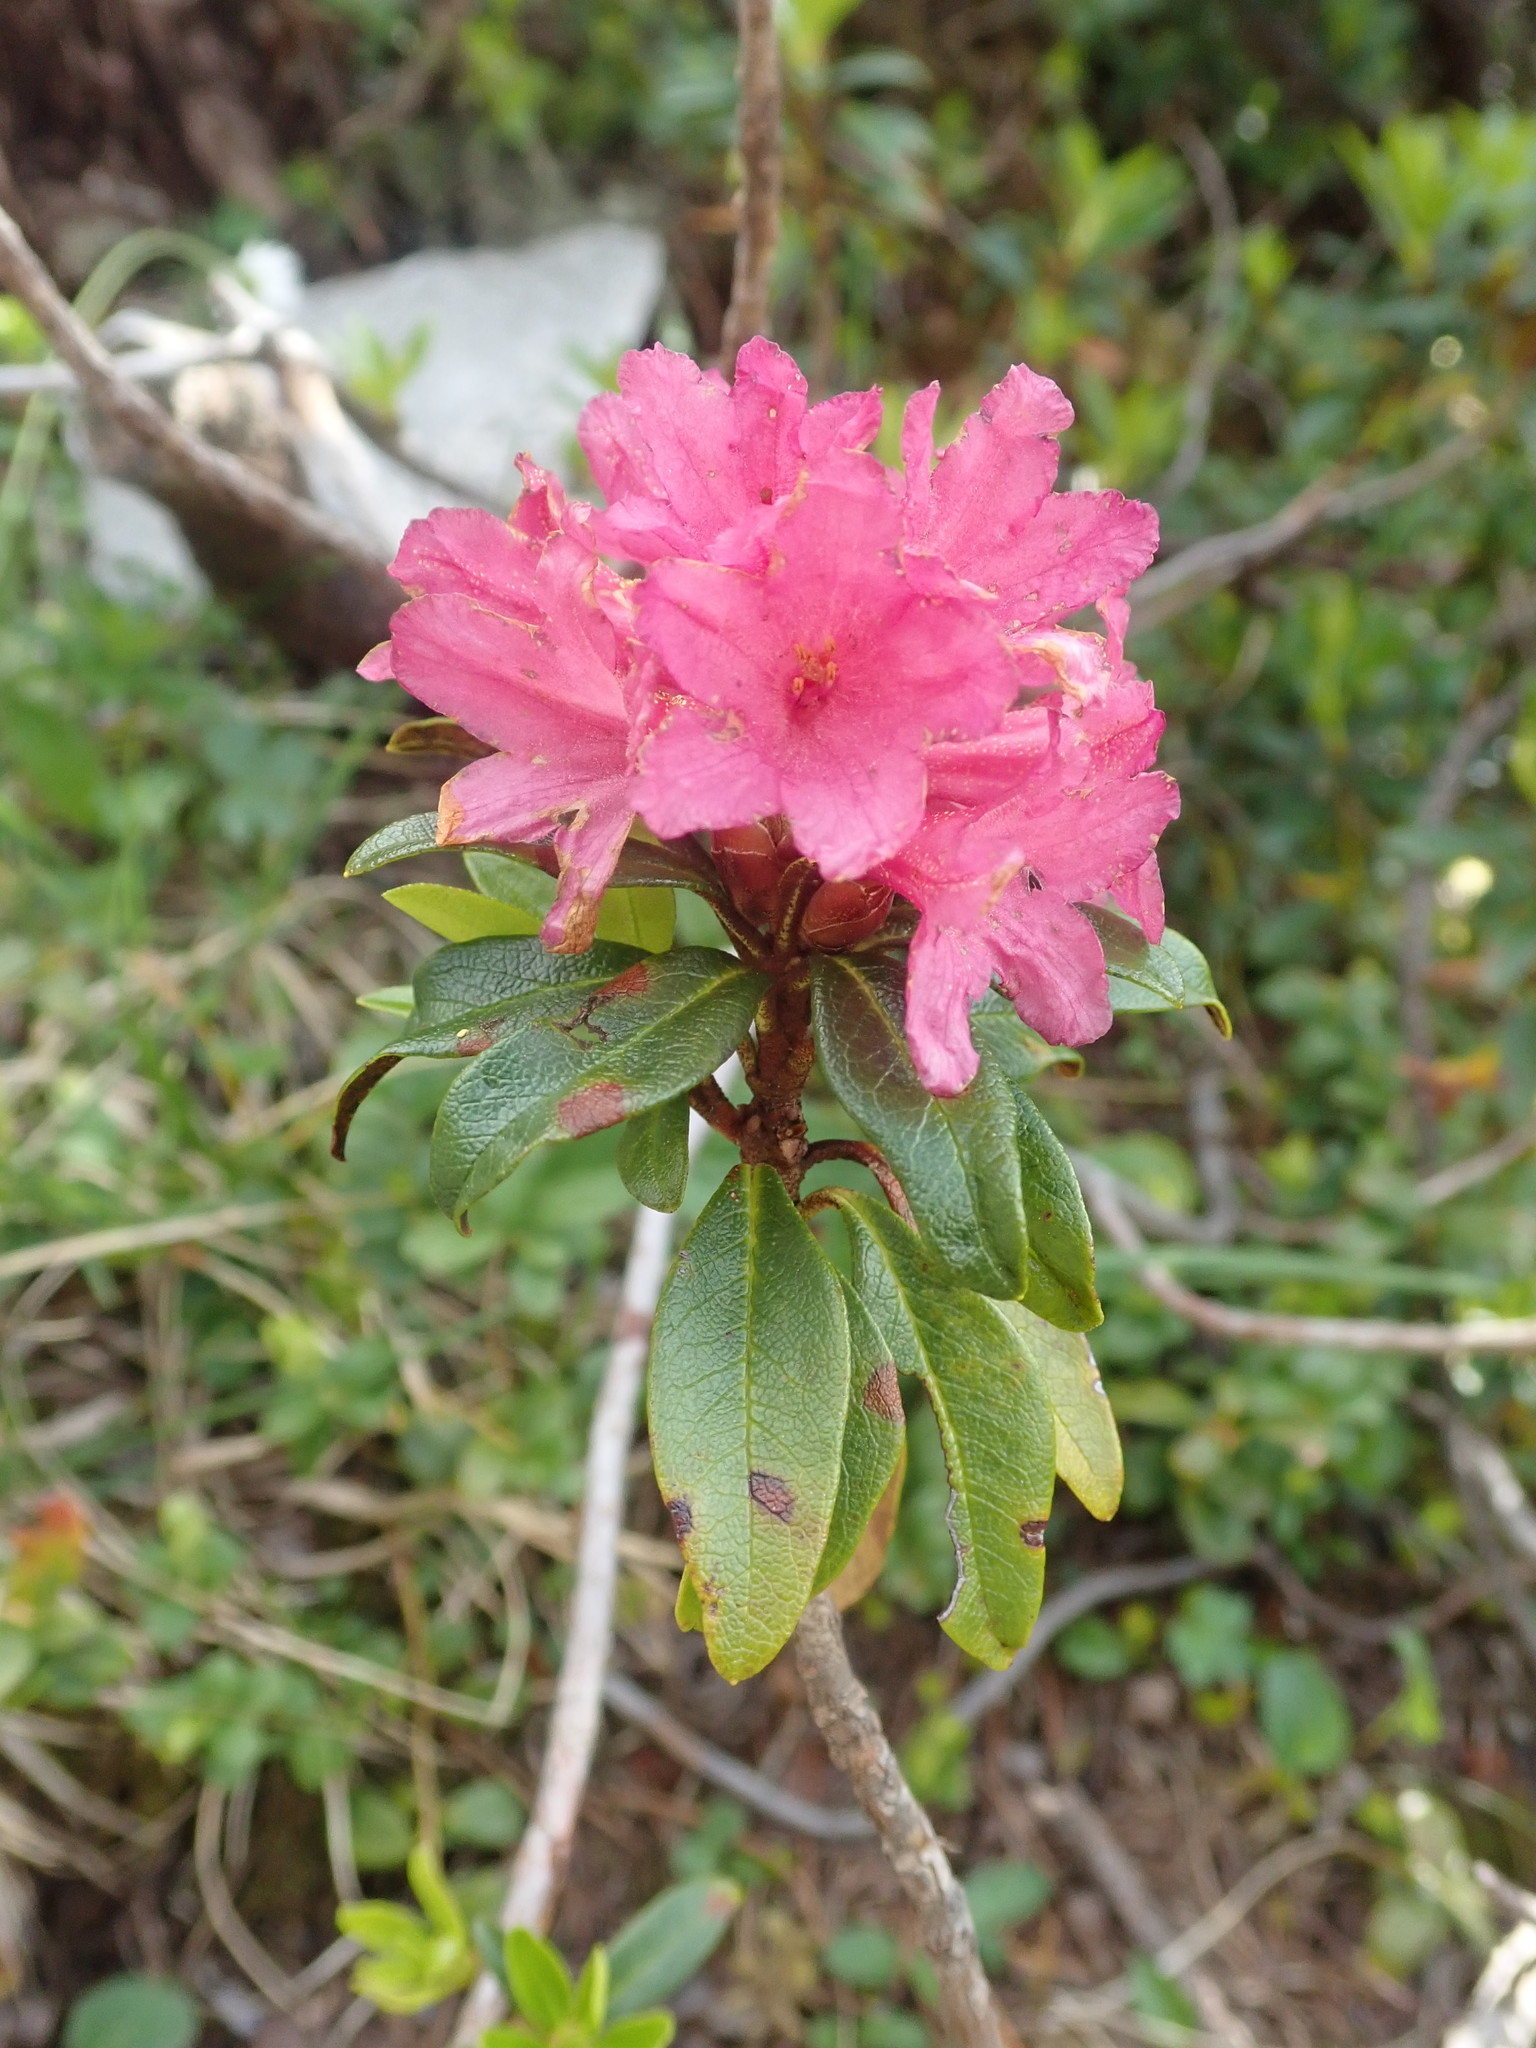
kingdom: Plantae
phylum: Tracheophyta
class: Magnoliopsida
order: Ericales
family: Ericaceae
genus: Rhododendron
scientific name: Rhododendron ferrugineum
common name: Alpenrose
